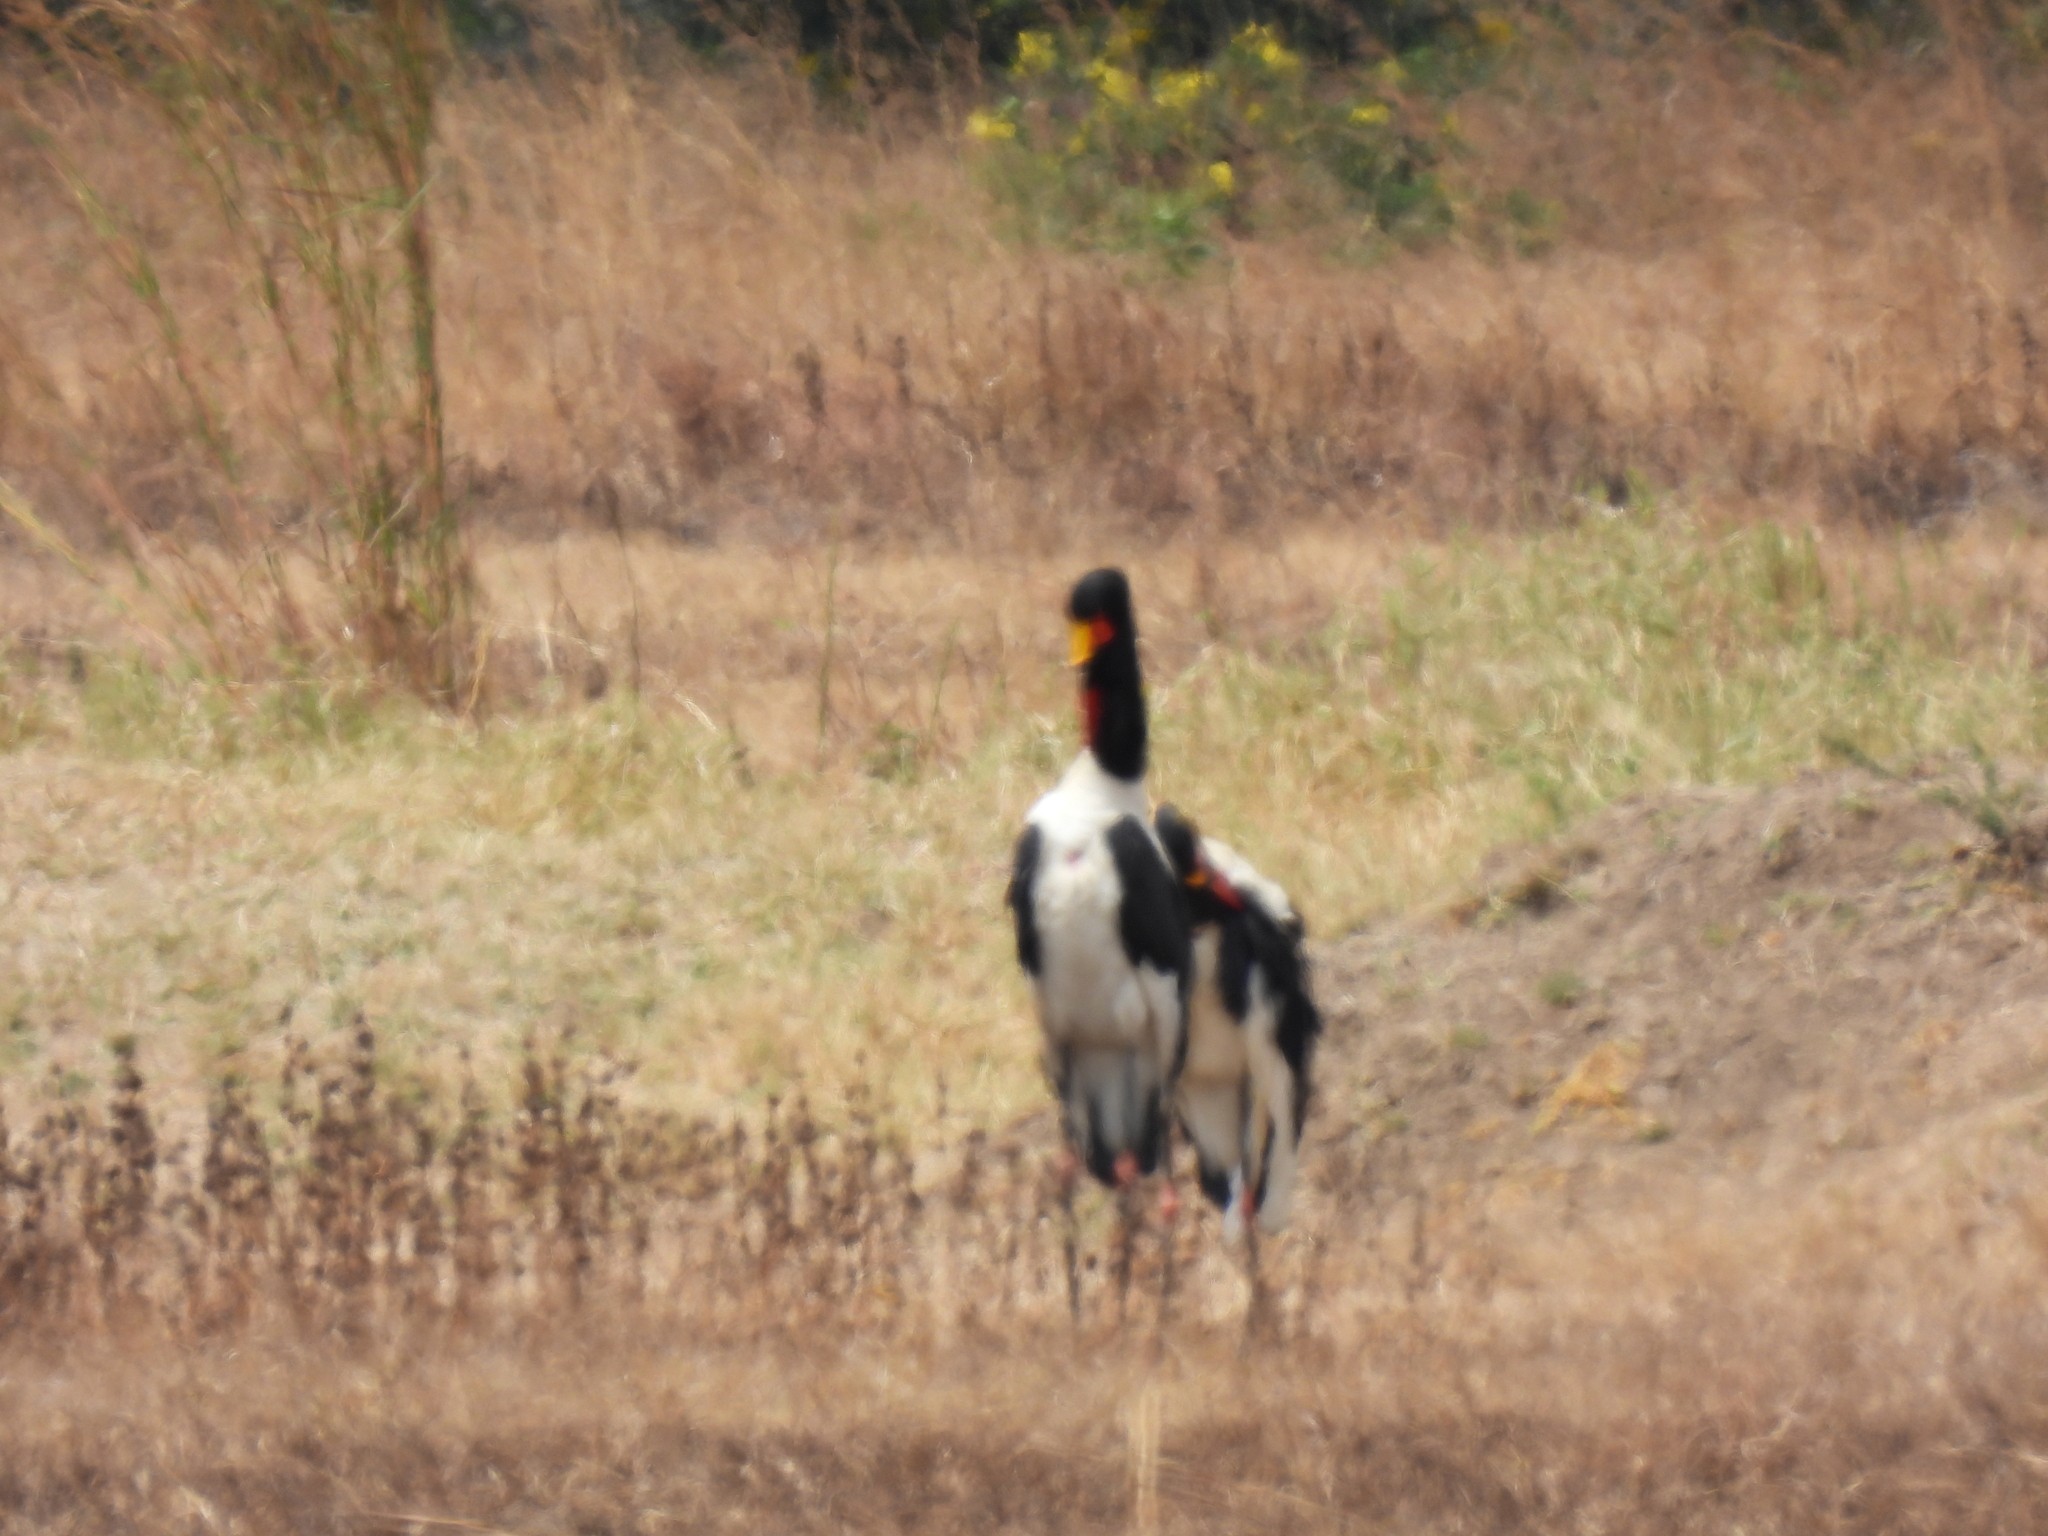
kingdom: Animalia
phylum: Chordata
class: Aves
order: Ciconiiformes
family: Ciconiidae
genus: Ephippiorhynchus
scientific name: Ephippiorhynchus senegalensis
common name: Saddle-billed stork
